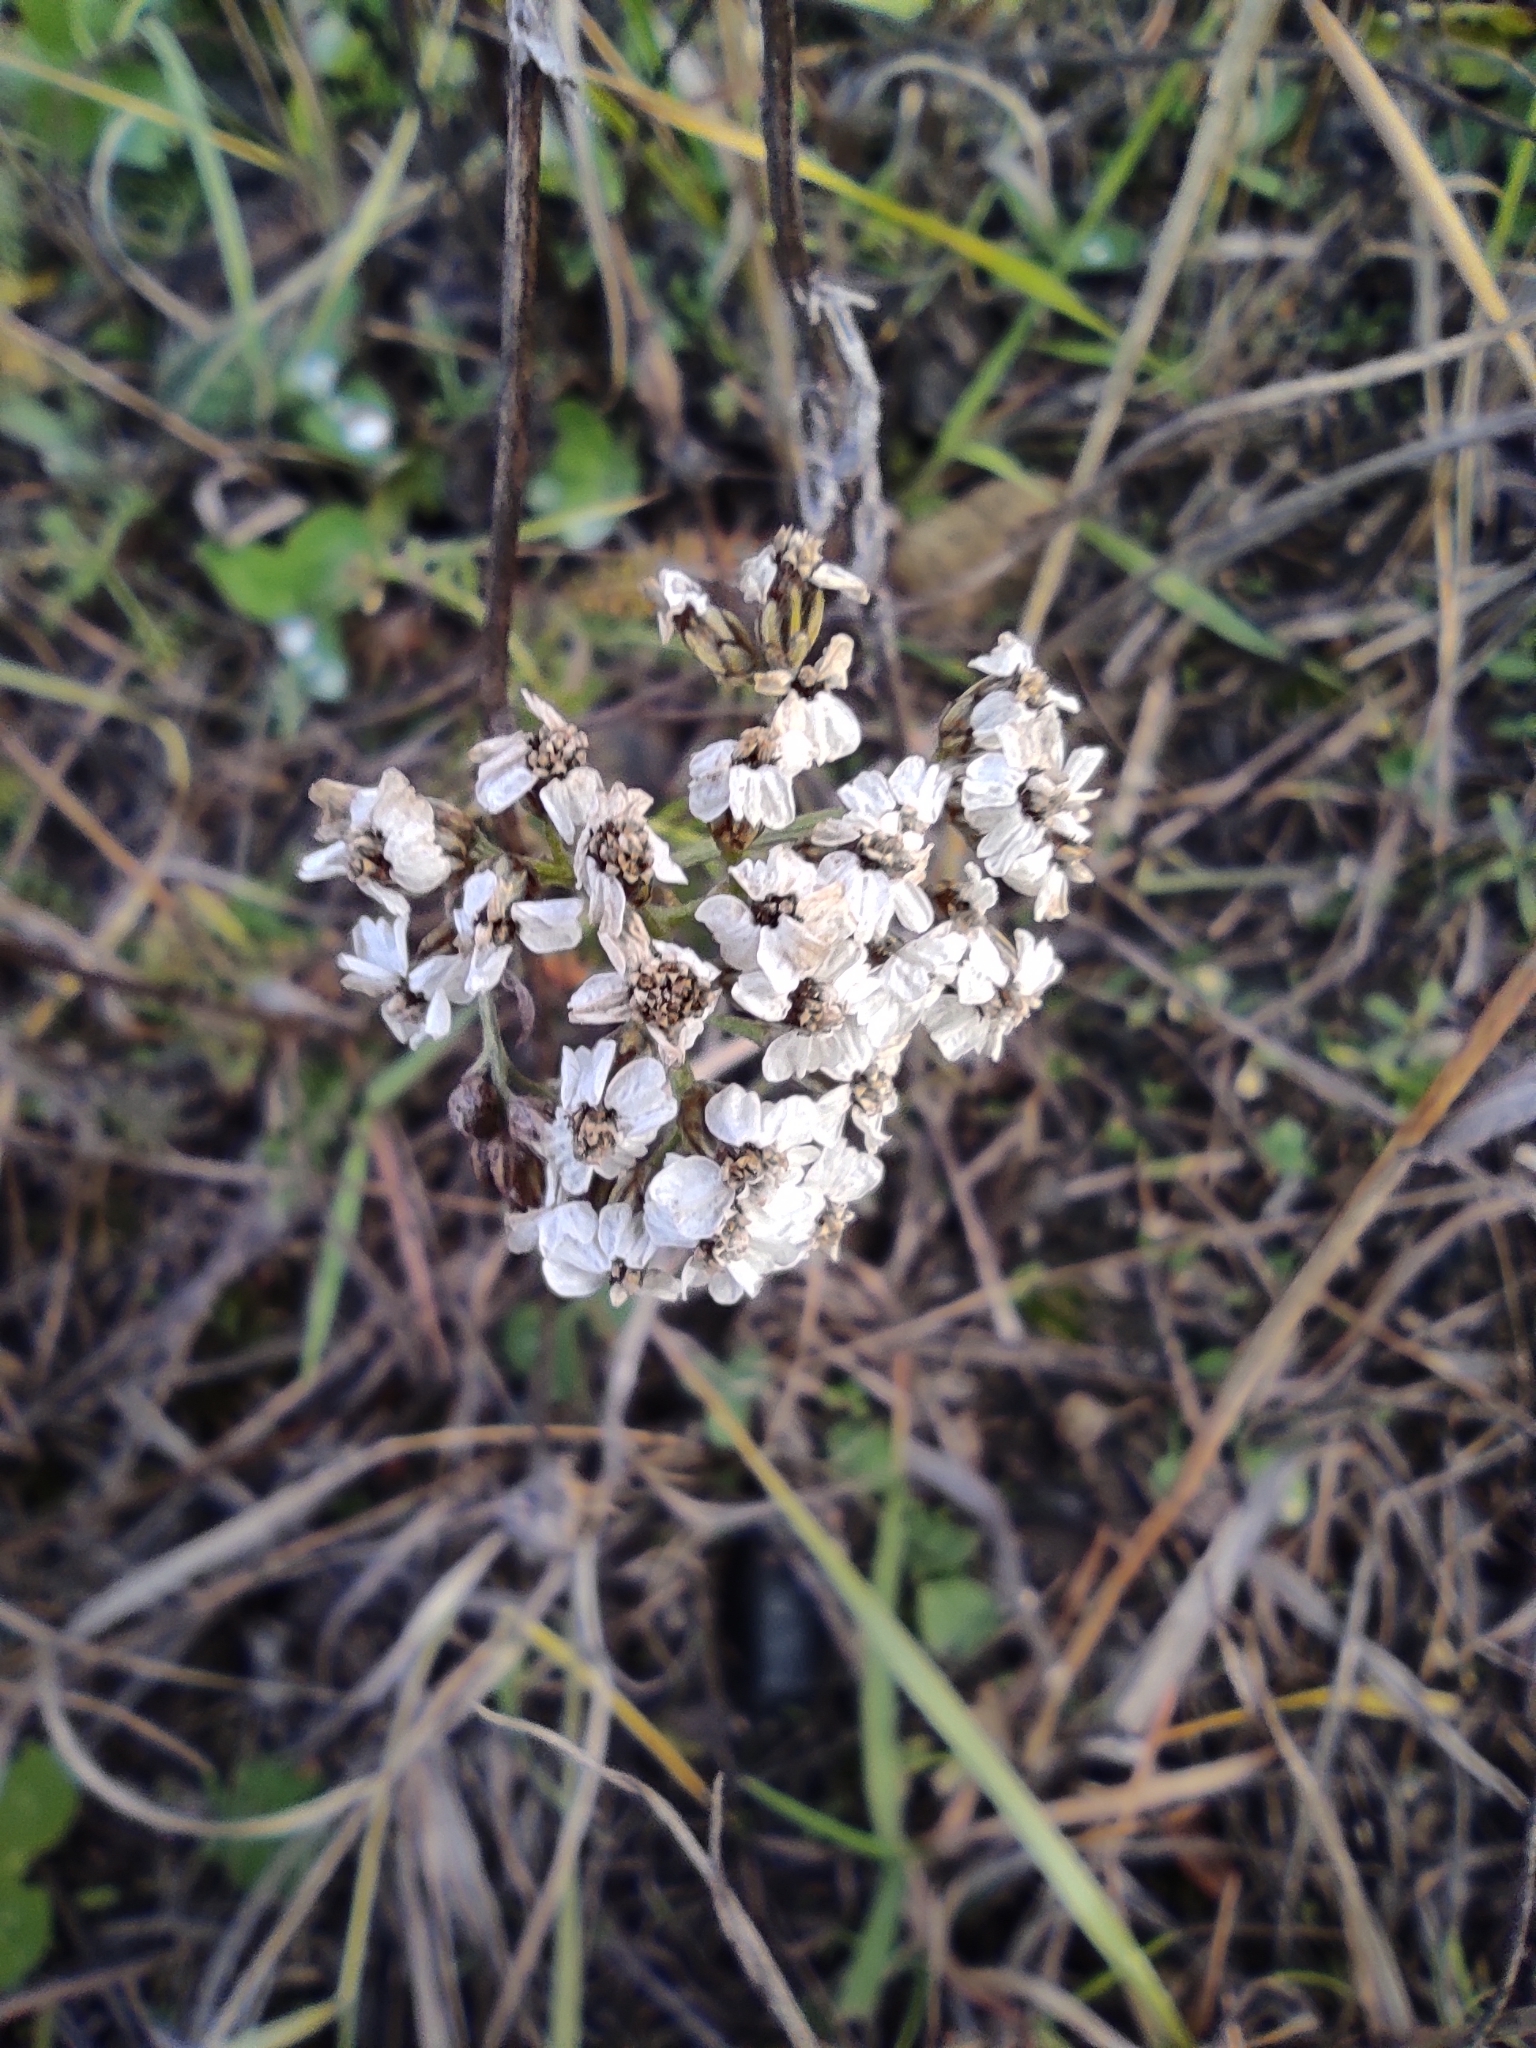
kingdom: Plantae
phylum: Tracheophyta
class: Magnoliopsida
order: Asterales
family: Asteraceae
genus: Achillea
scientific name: Achillea millefolium
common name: Yarrow
